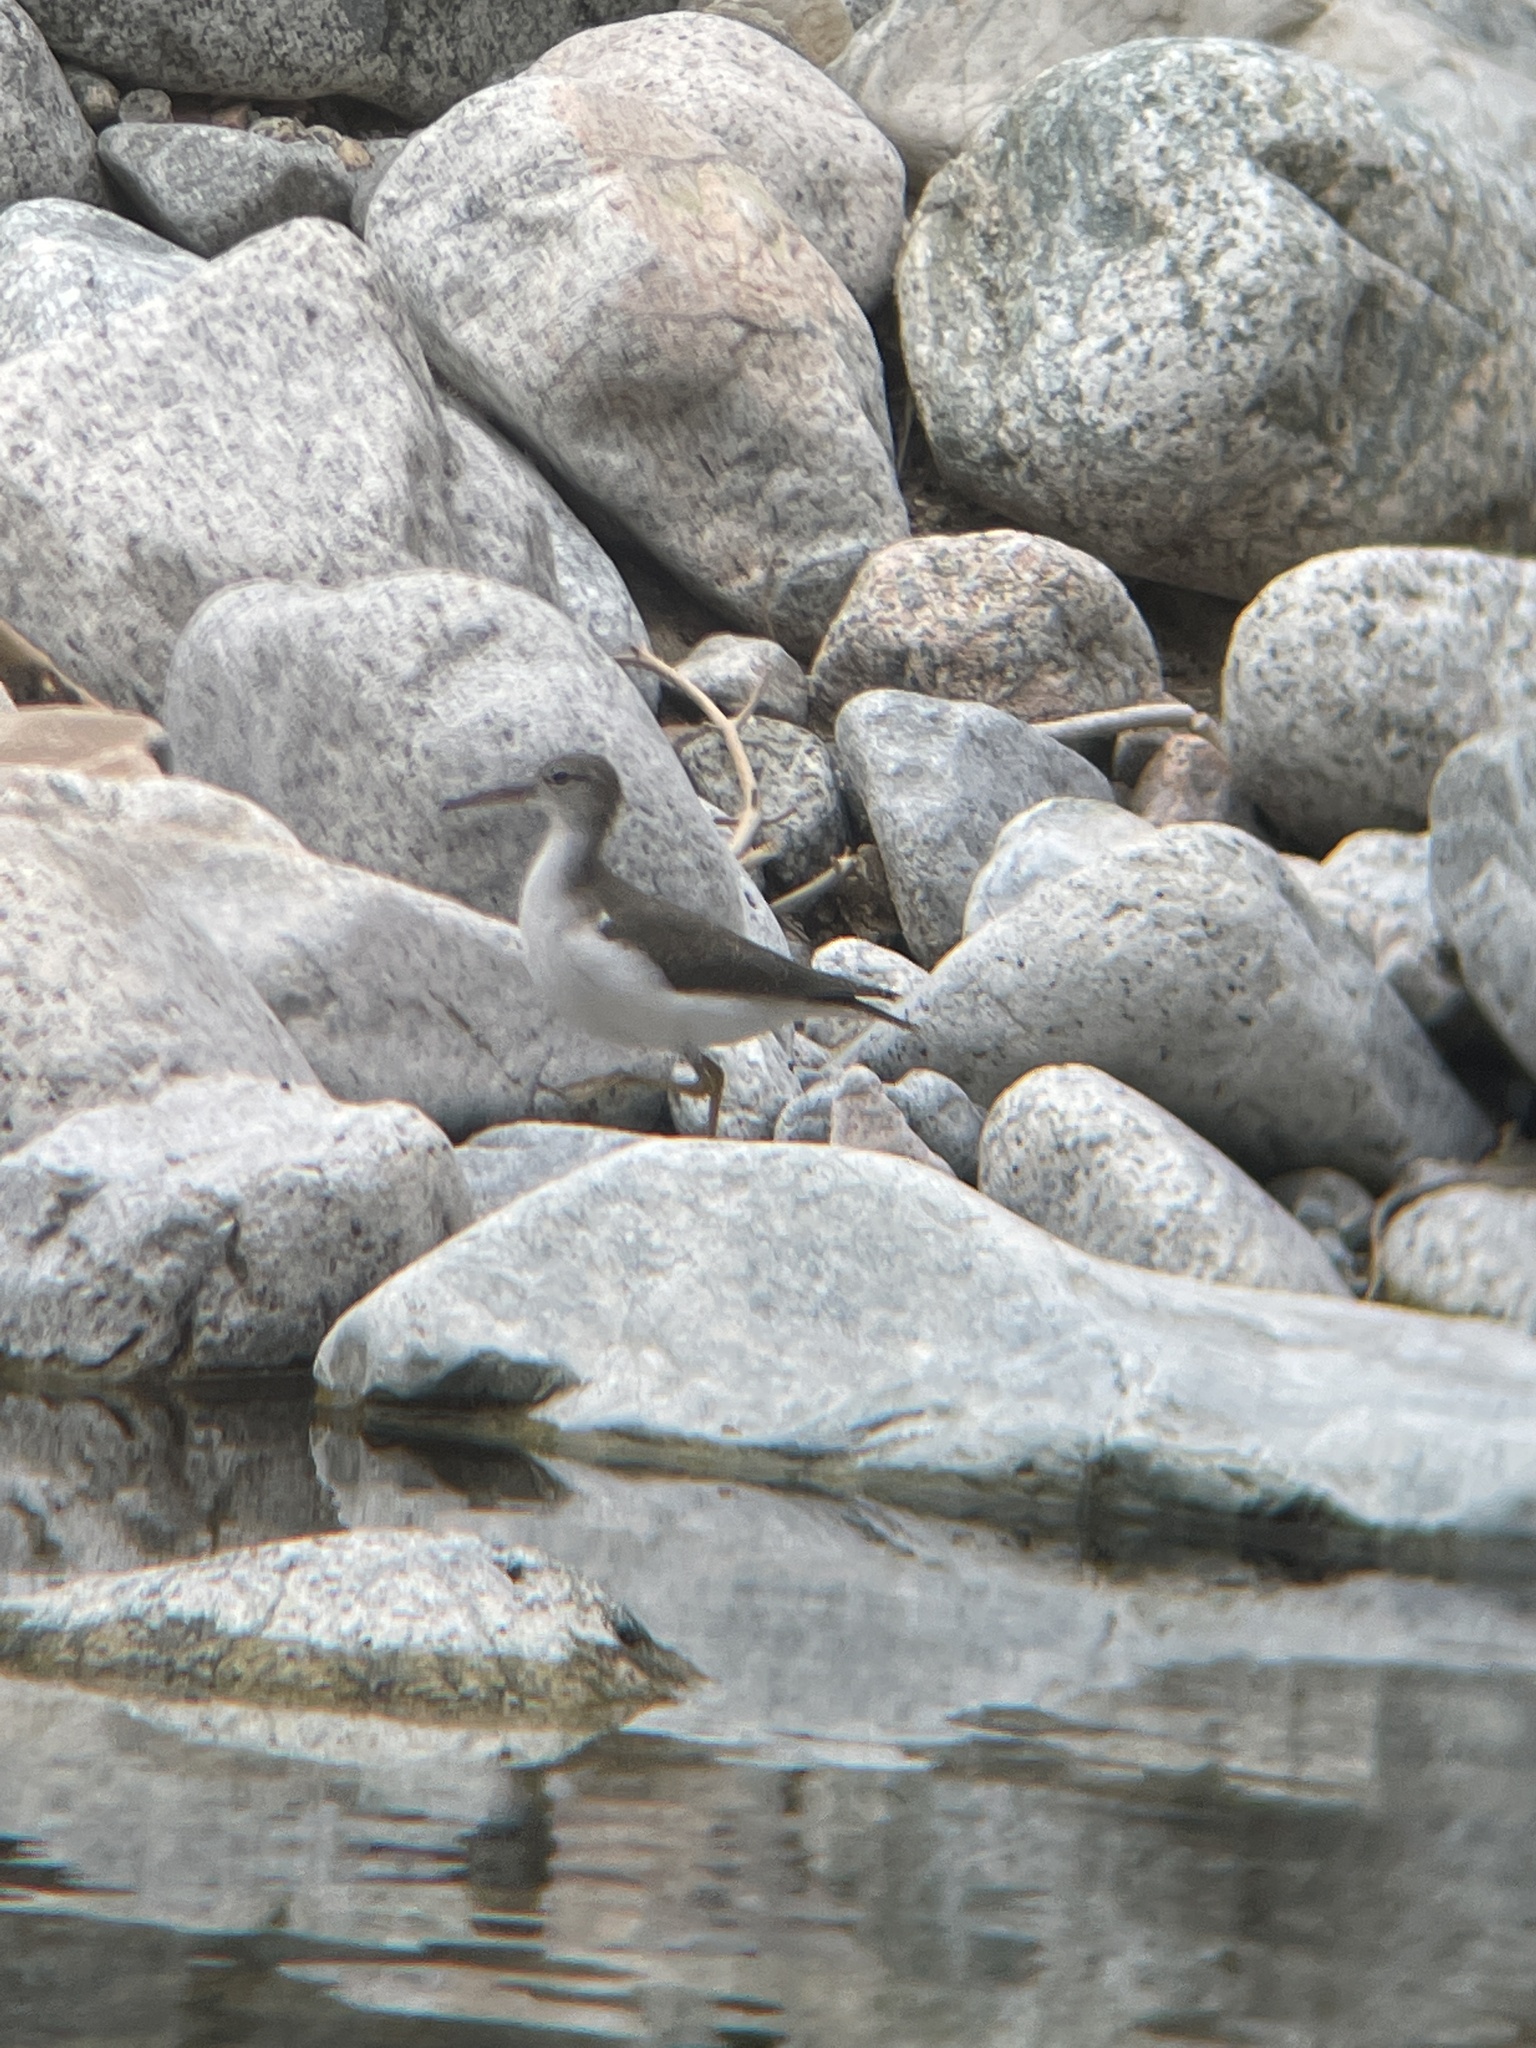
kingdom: Animalia
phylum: Chordata
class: Aves
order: Charadriiformes
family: Scolopacidae
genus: Actitis
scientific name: Actitis macularius
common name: Spotted sandpiper
